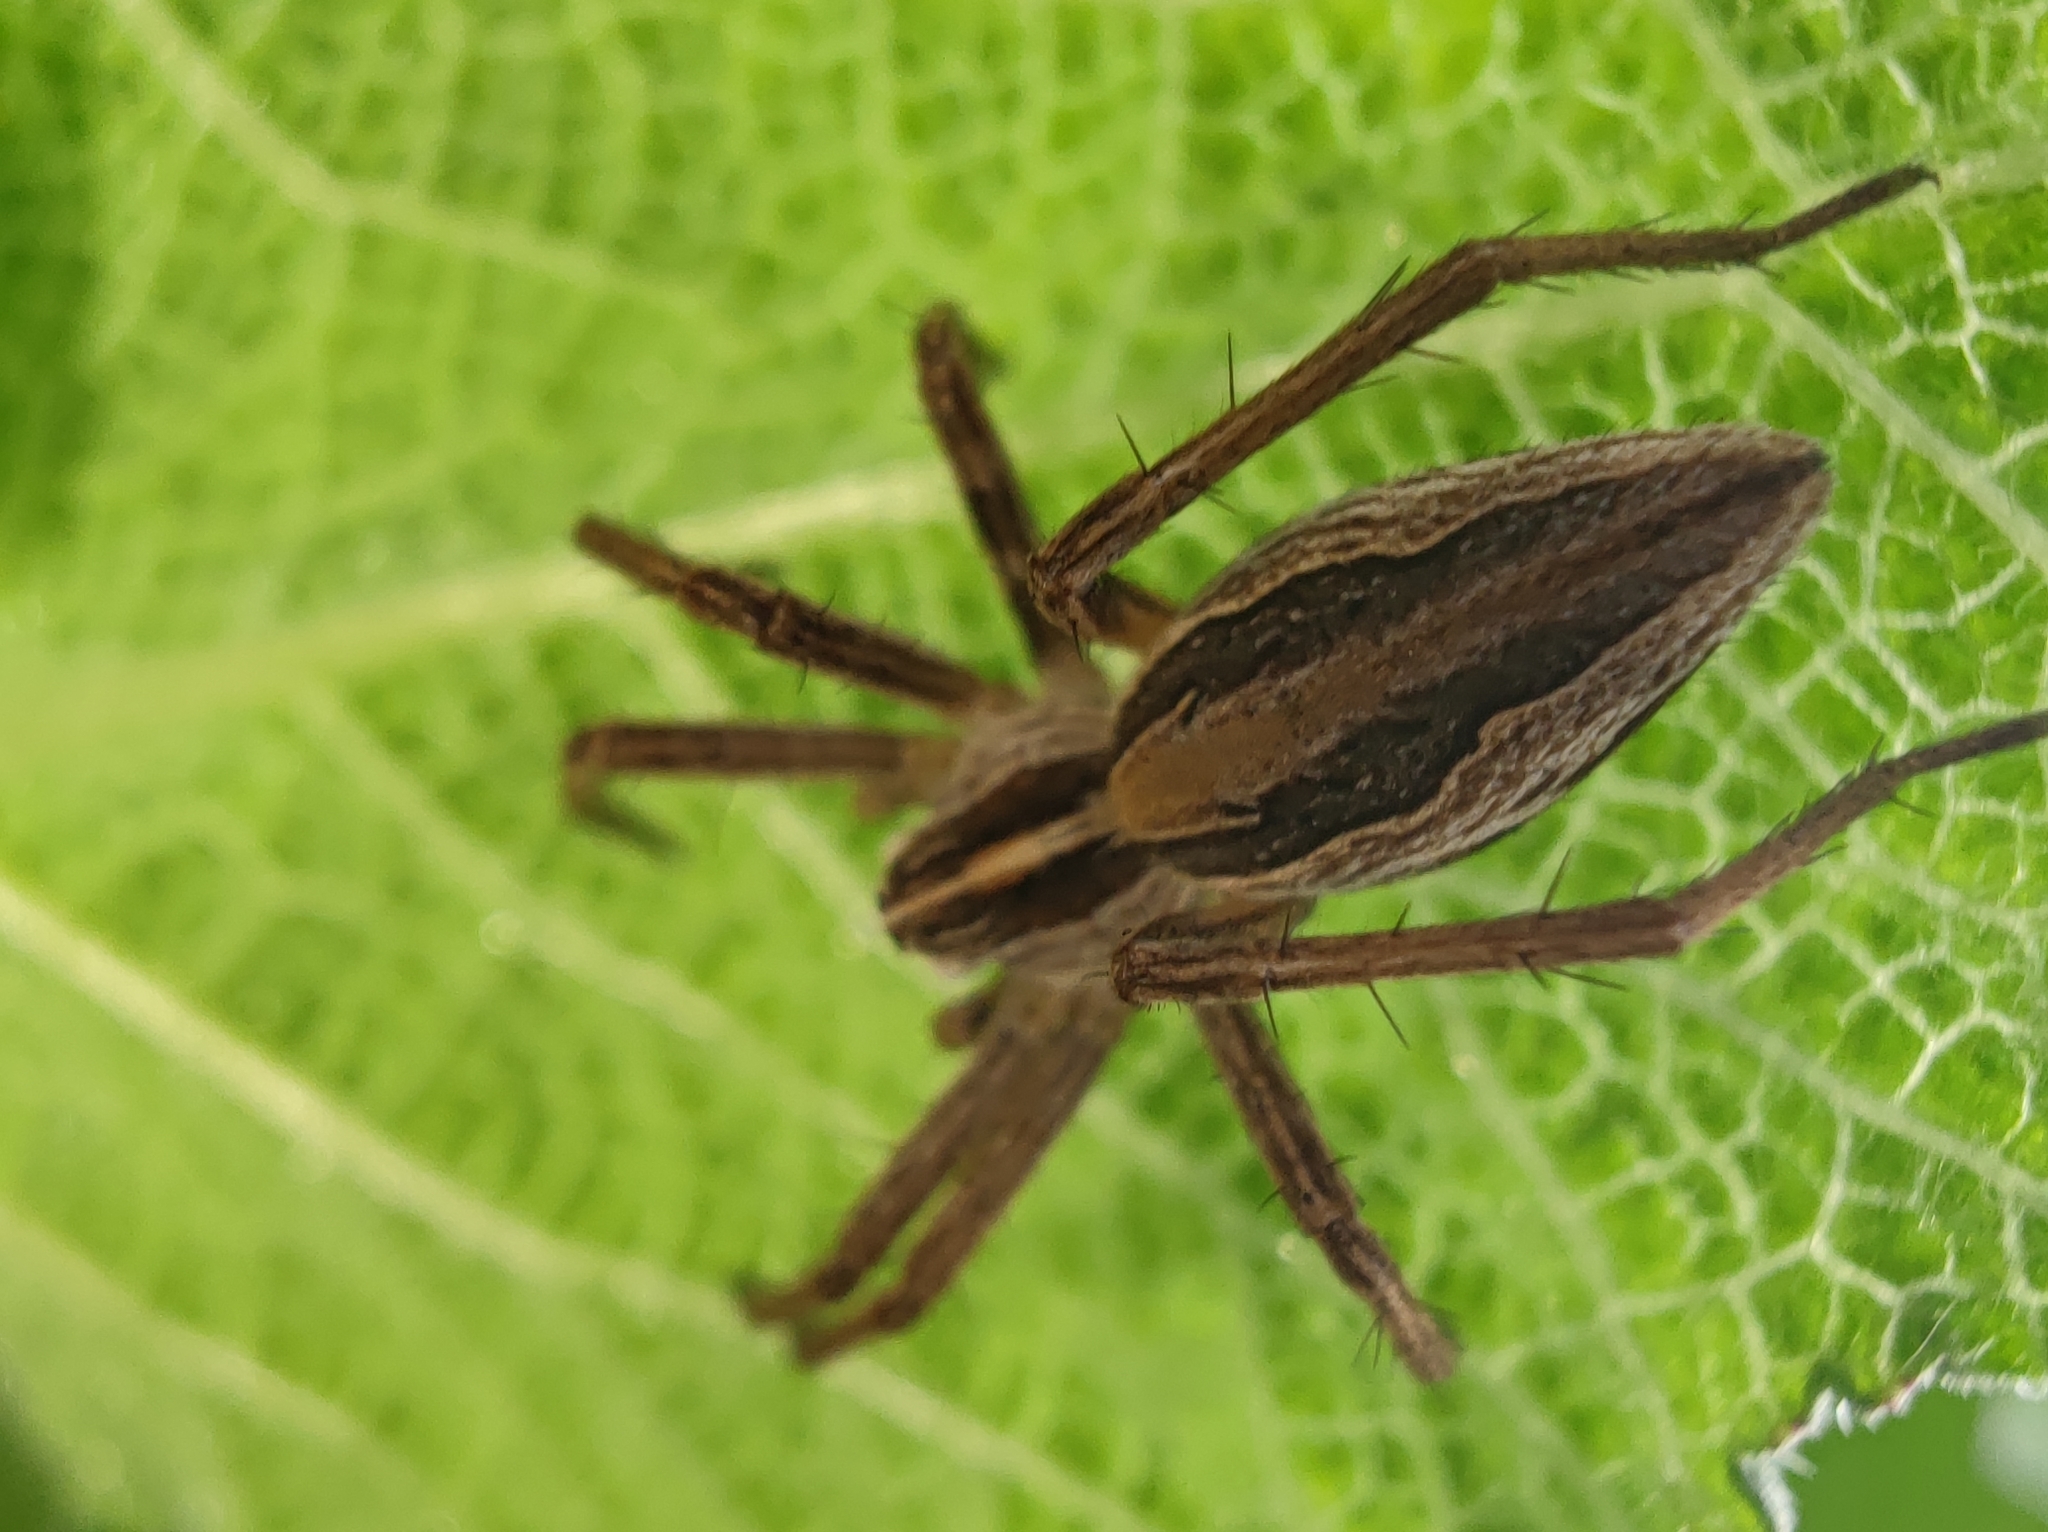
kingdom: Animalia
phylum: Arthropoda
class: Arachnida
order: Araneae
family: Pisauridae
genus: Pisaura
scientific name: Pisaura mirabilis
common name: Tent spider
